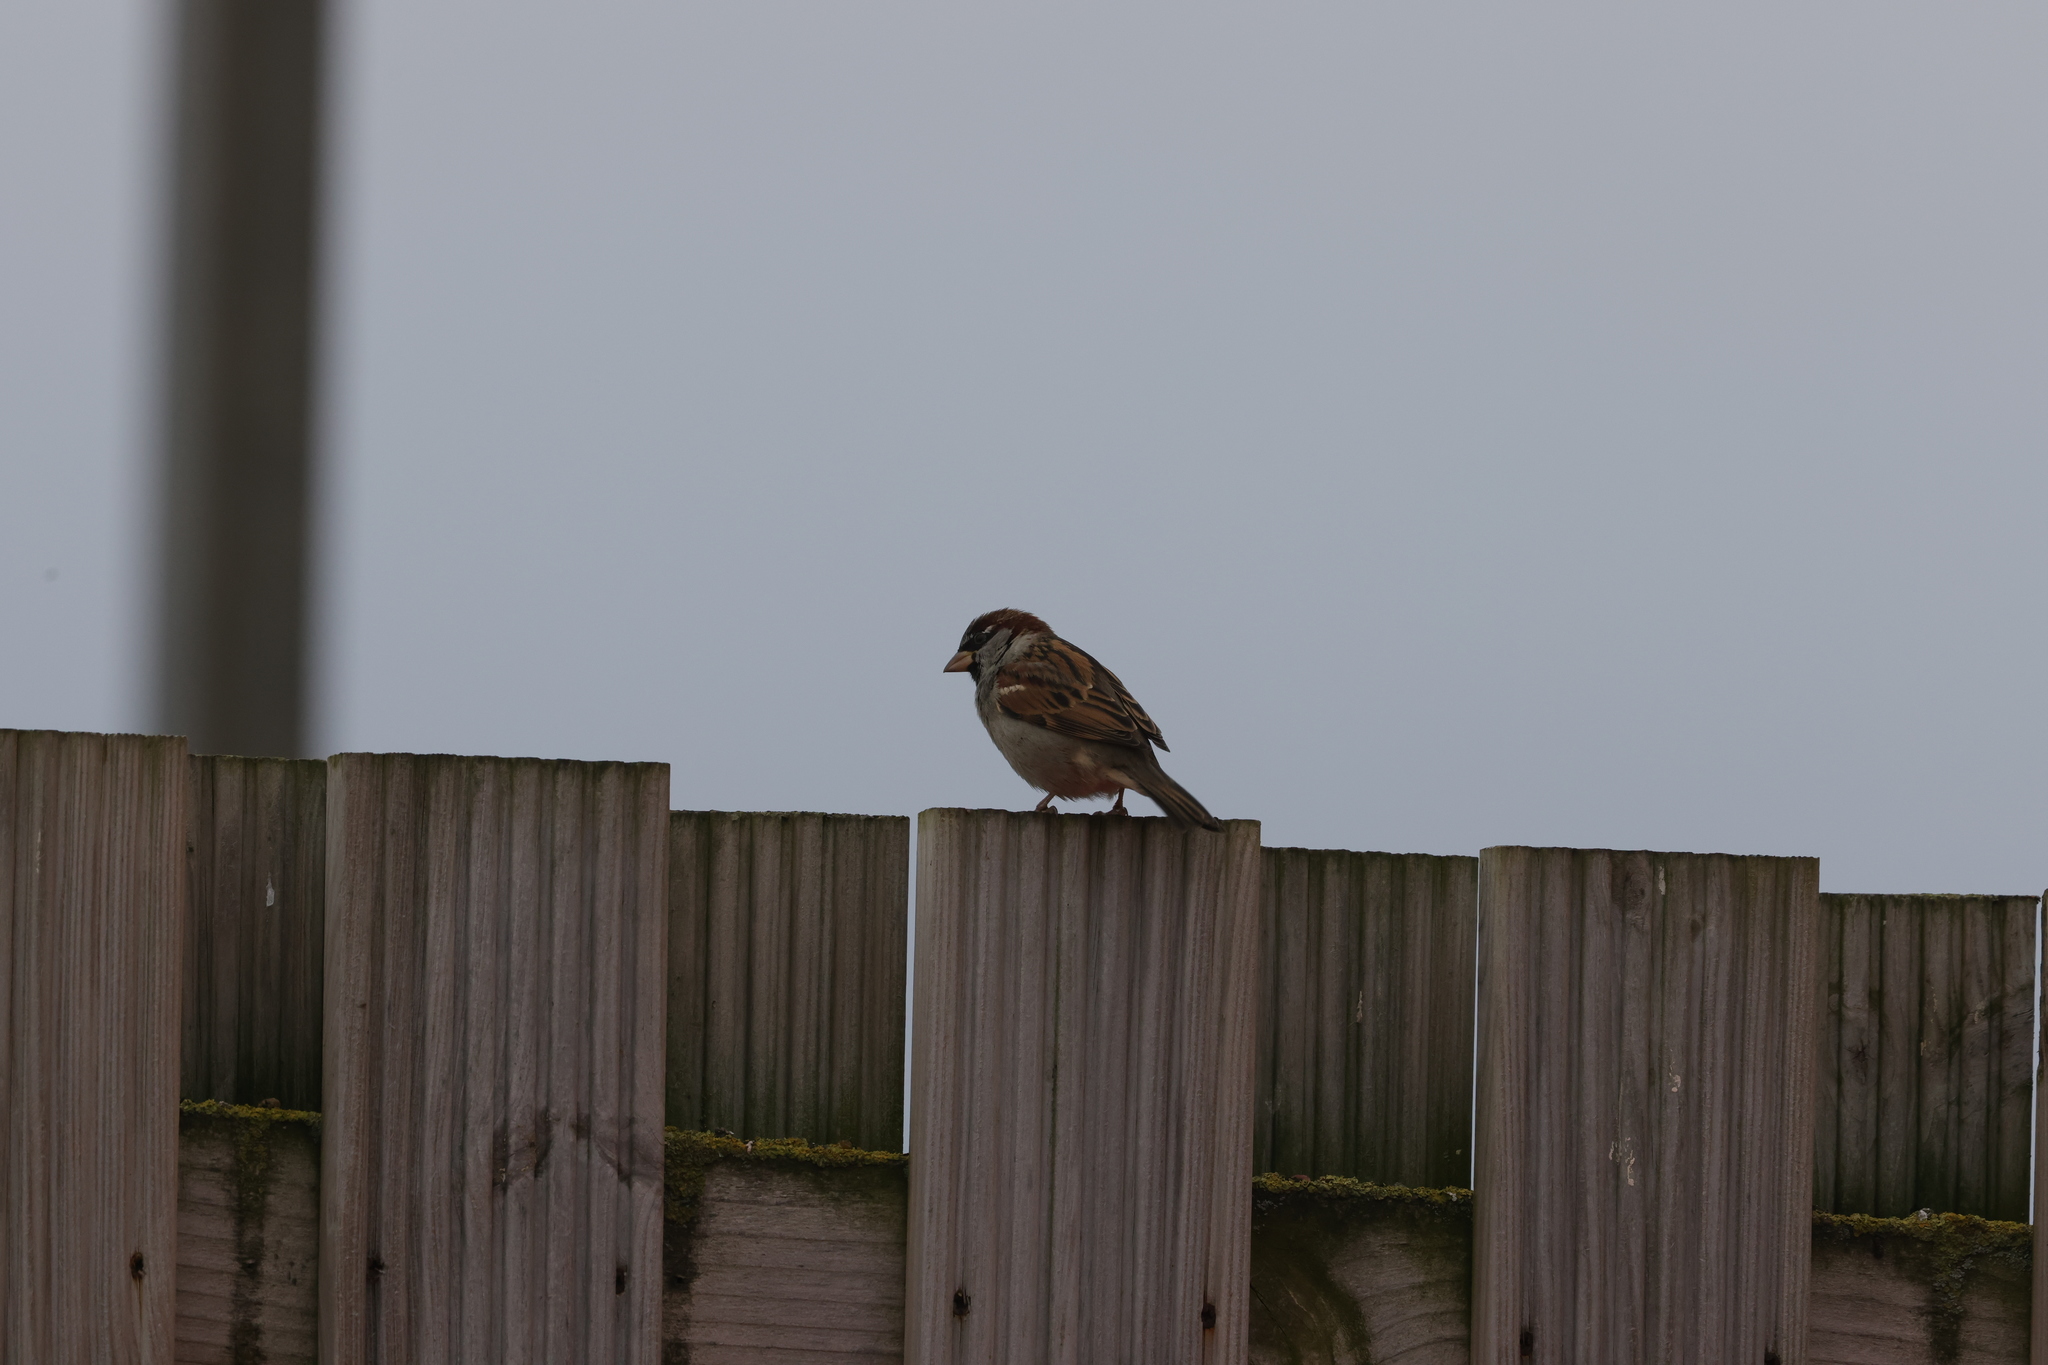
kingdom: Animalia
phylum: Chordata
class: Aves
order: Passeriformes
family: Passeridae
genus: Passer
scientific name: Passer domesticus
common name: House sparrow
